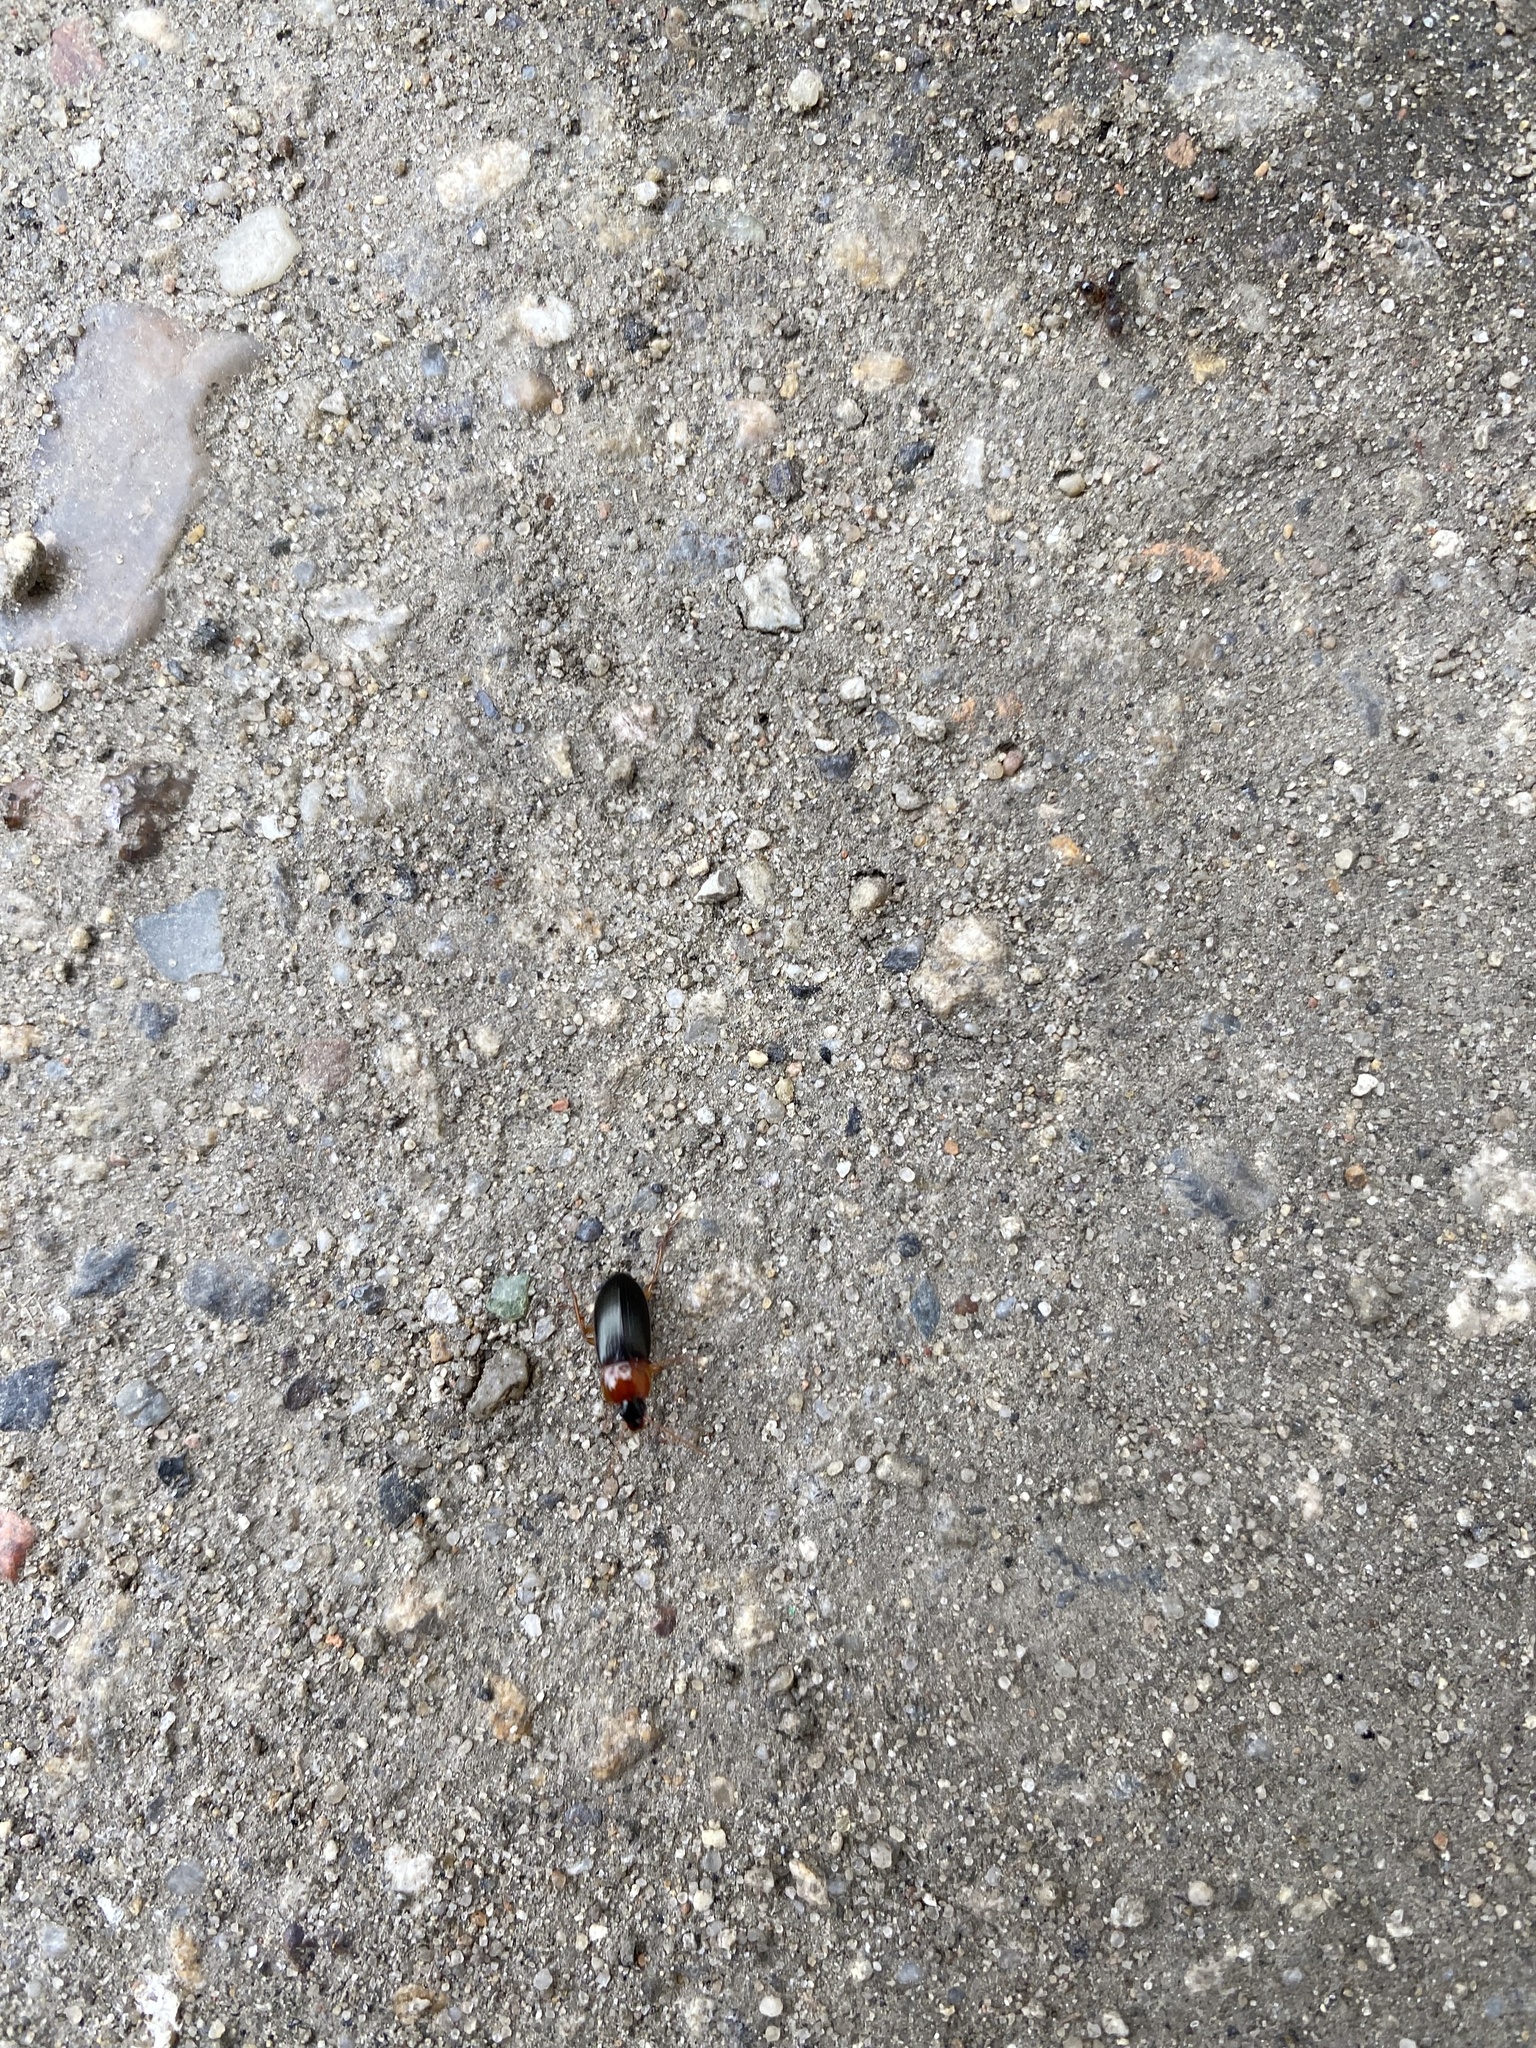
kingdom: Animalia
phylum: Arthropoda
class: Insecta
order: Coleoptera
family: Carabidae
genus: Calathus
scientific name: Calathus melanocephalus
